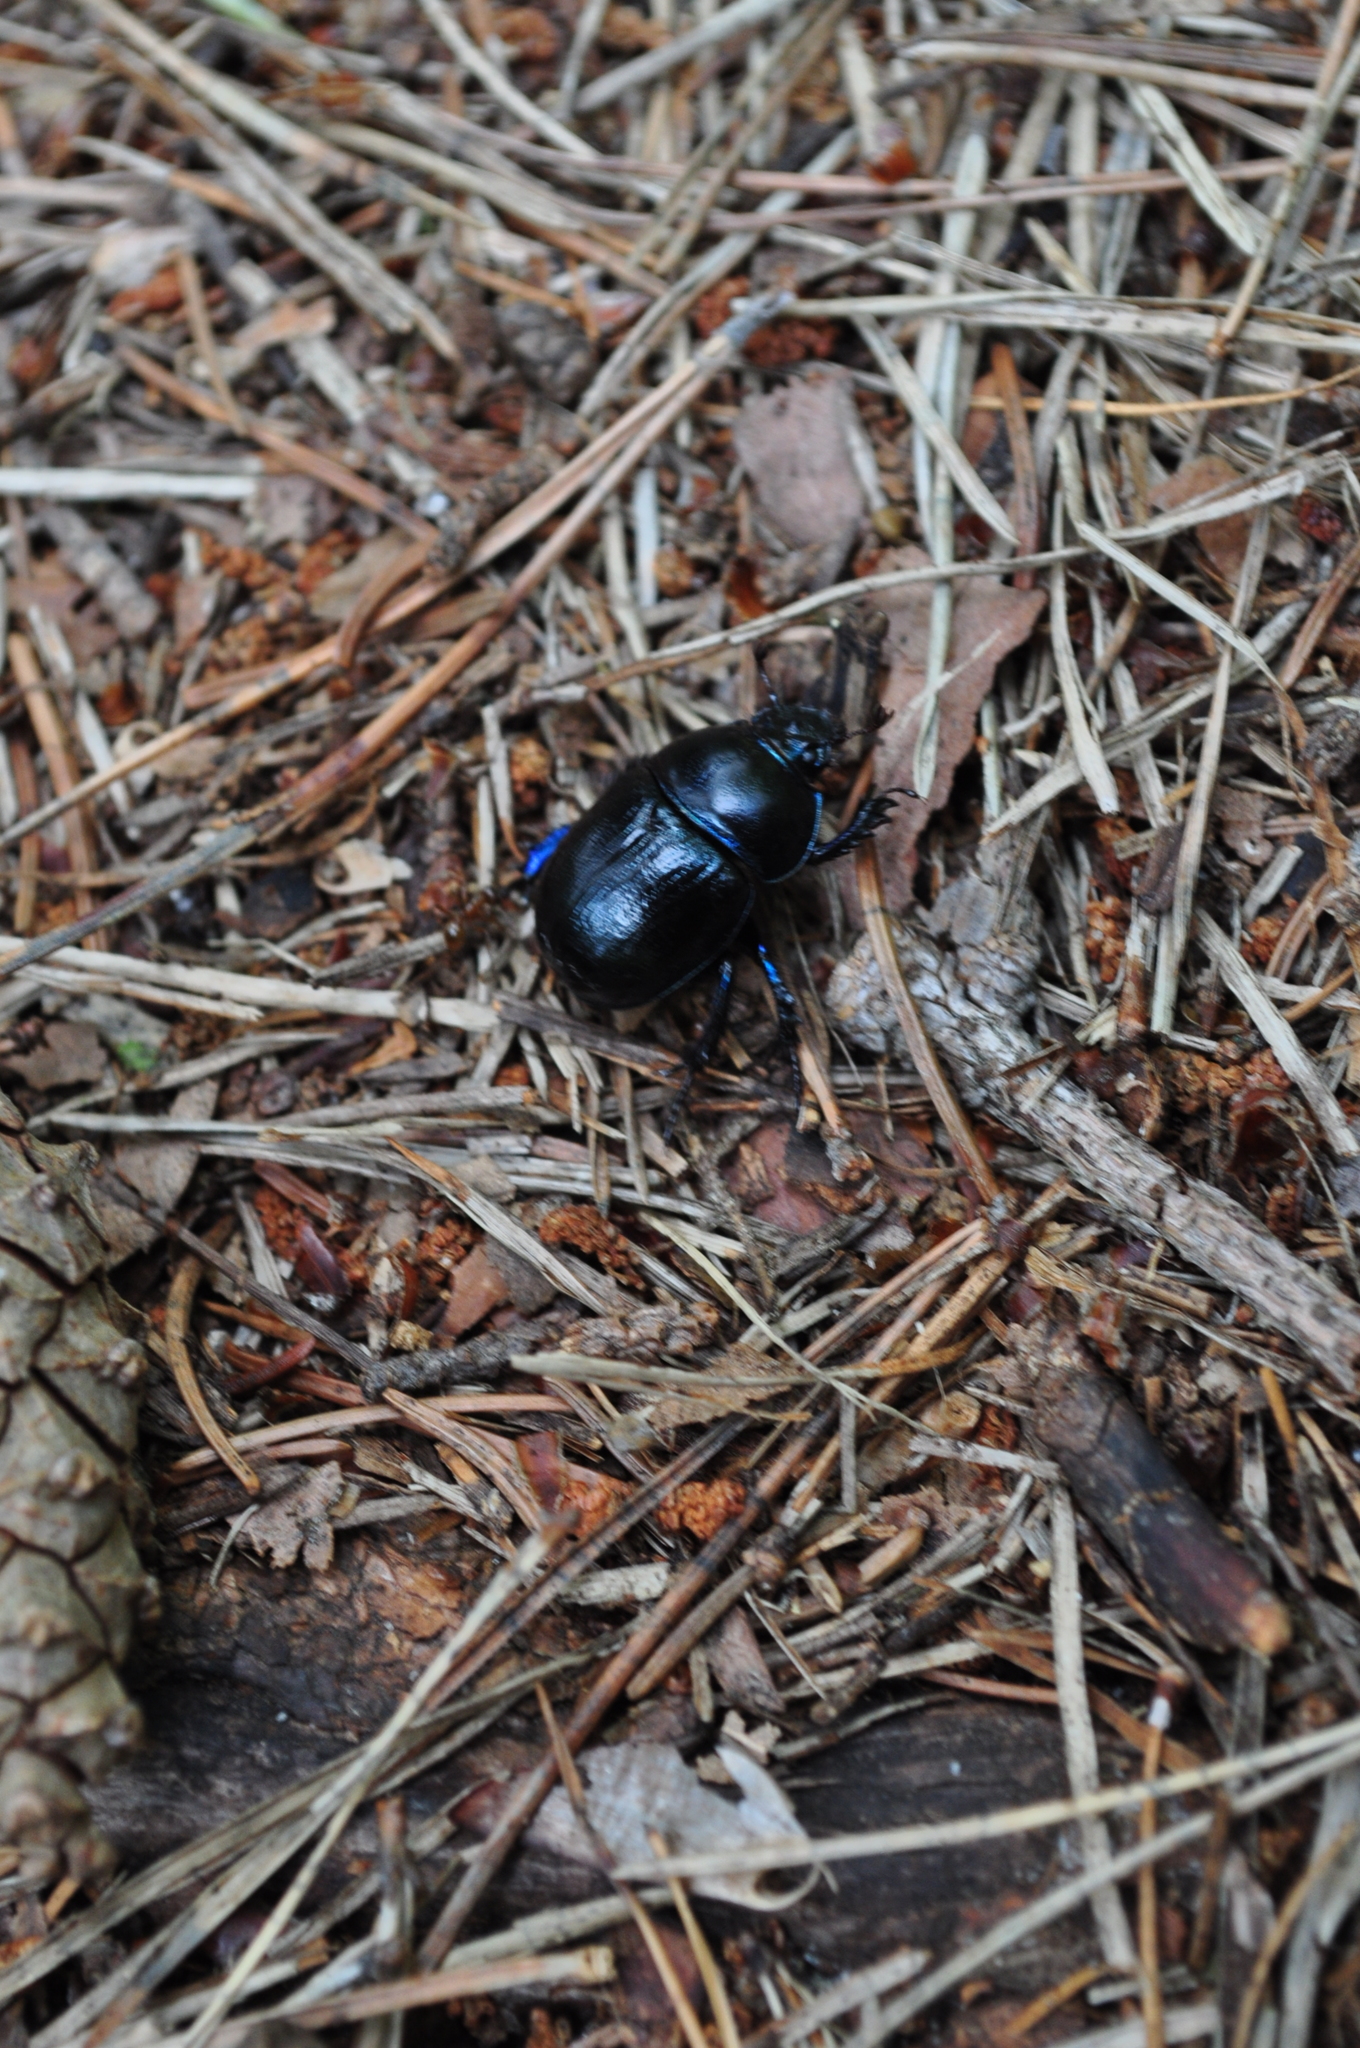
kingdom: Animalia
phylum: Arthropoda
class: Insecta
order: Coleoptera
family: Geotrupidae
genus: Anoplotrupes
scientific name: Anoplotrupes stercorosus
